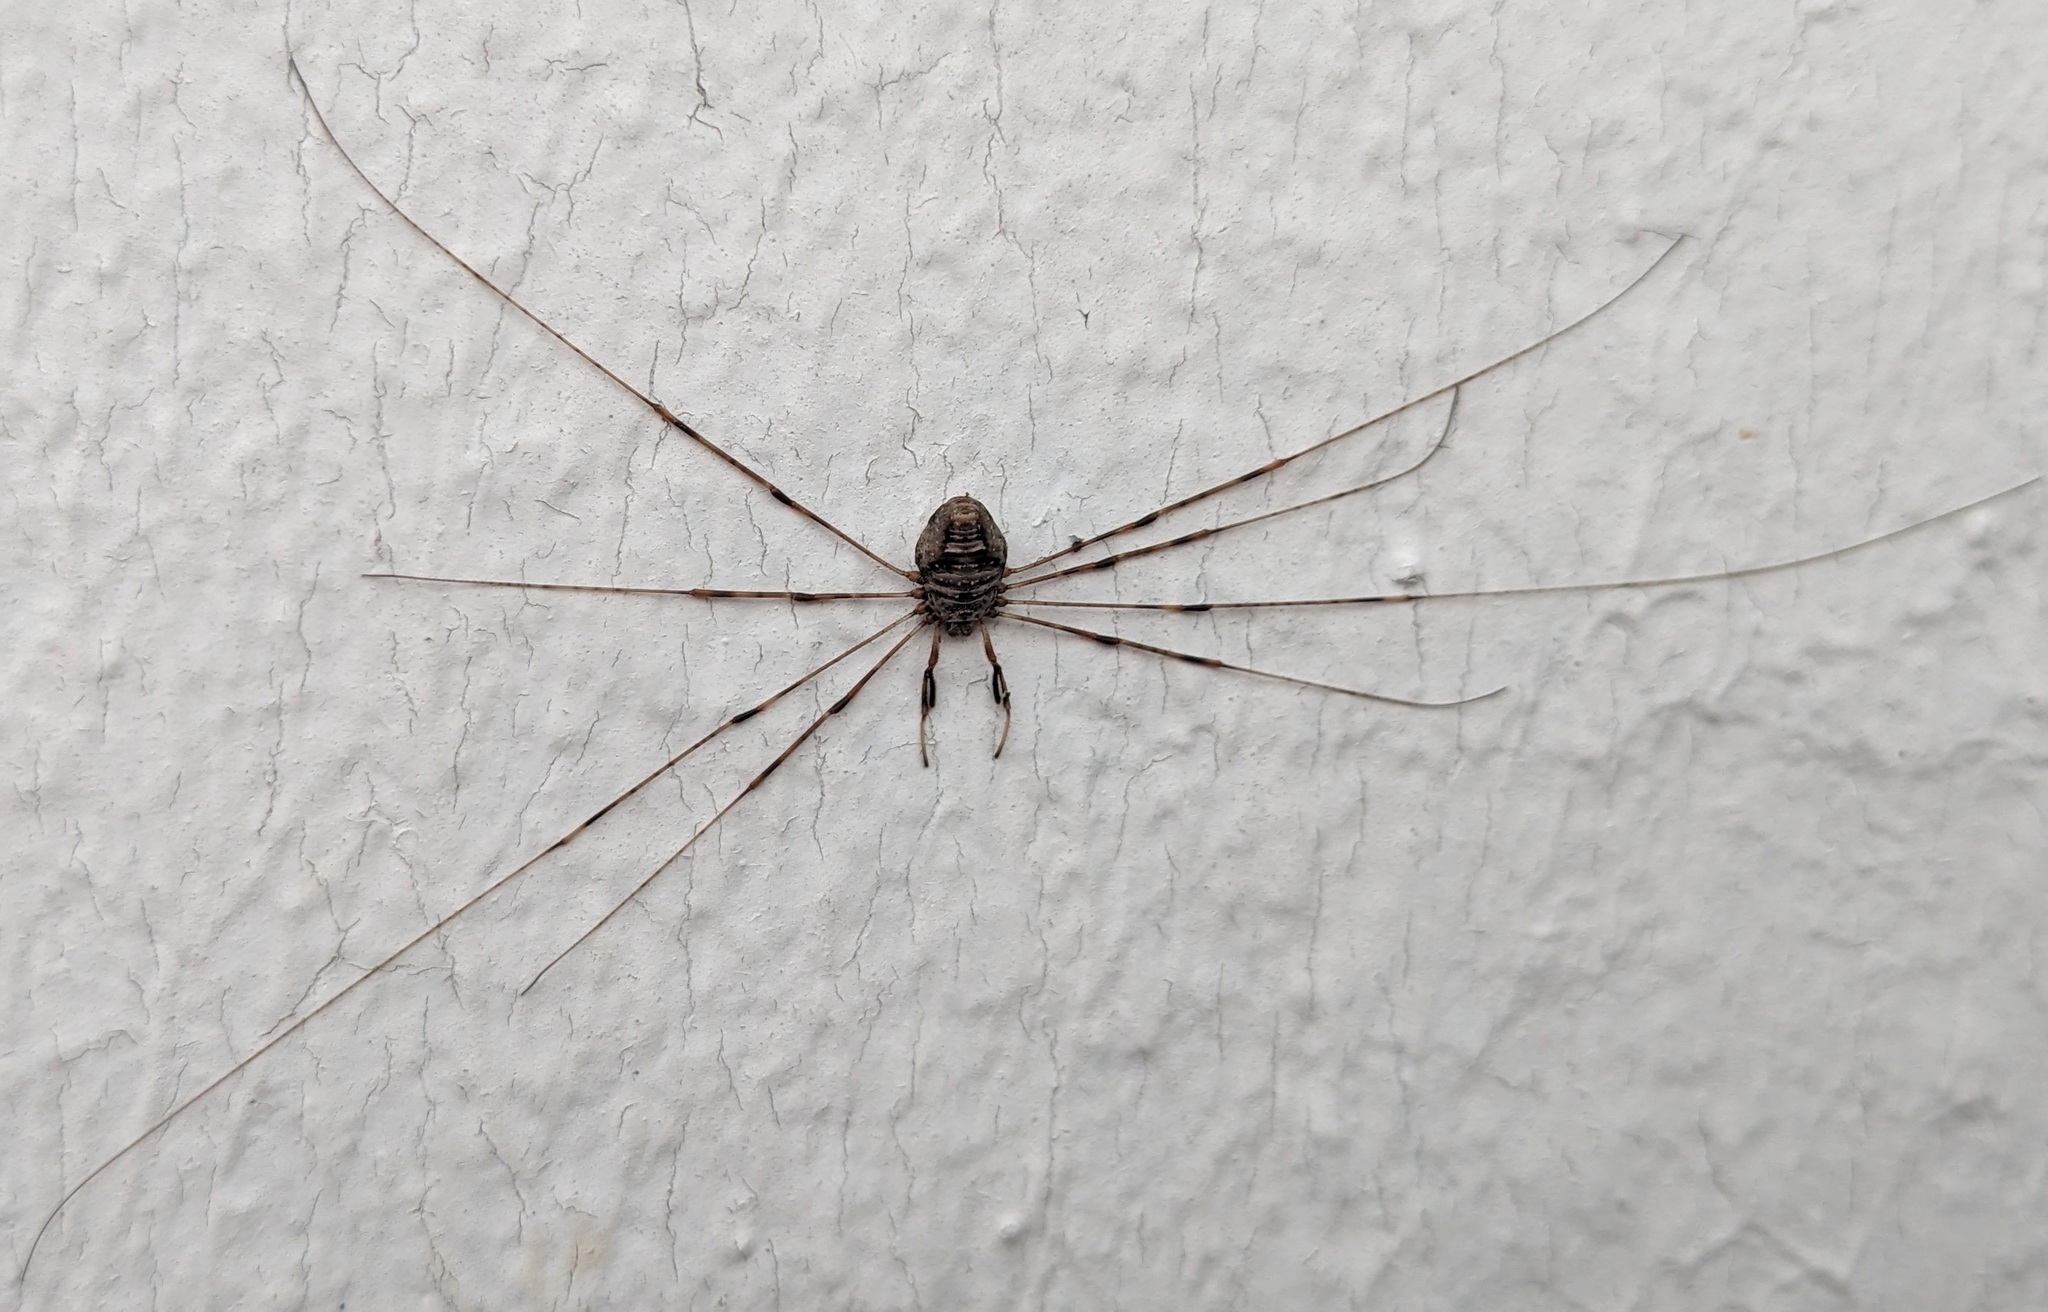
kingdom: Animalia
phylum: Arthropoda
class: Arachnida
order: Opiliones
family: Phalangiidae
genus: Dicranopalpus
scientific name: Dicranopalpus ramosus
